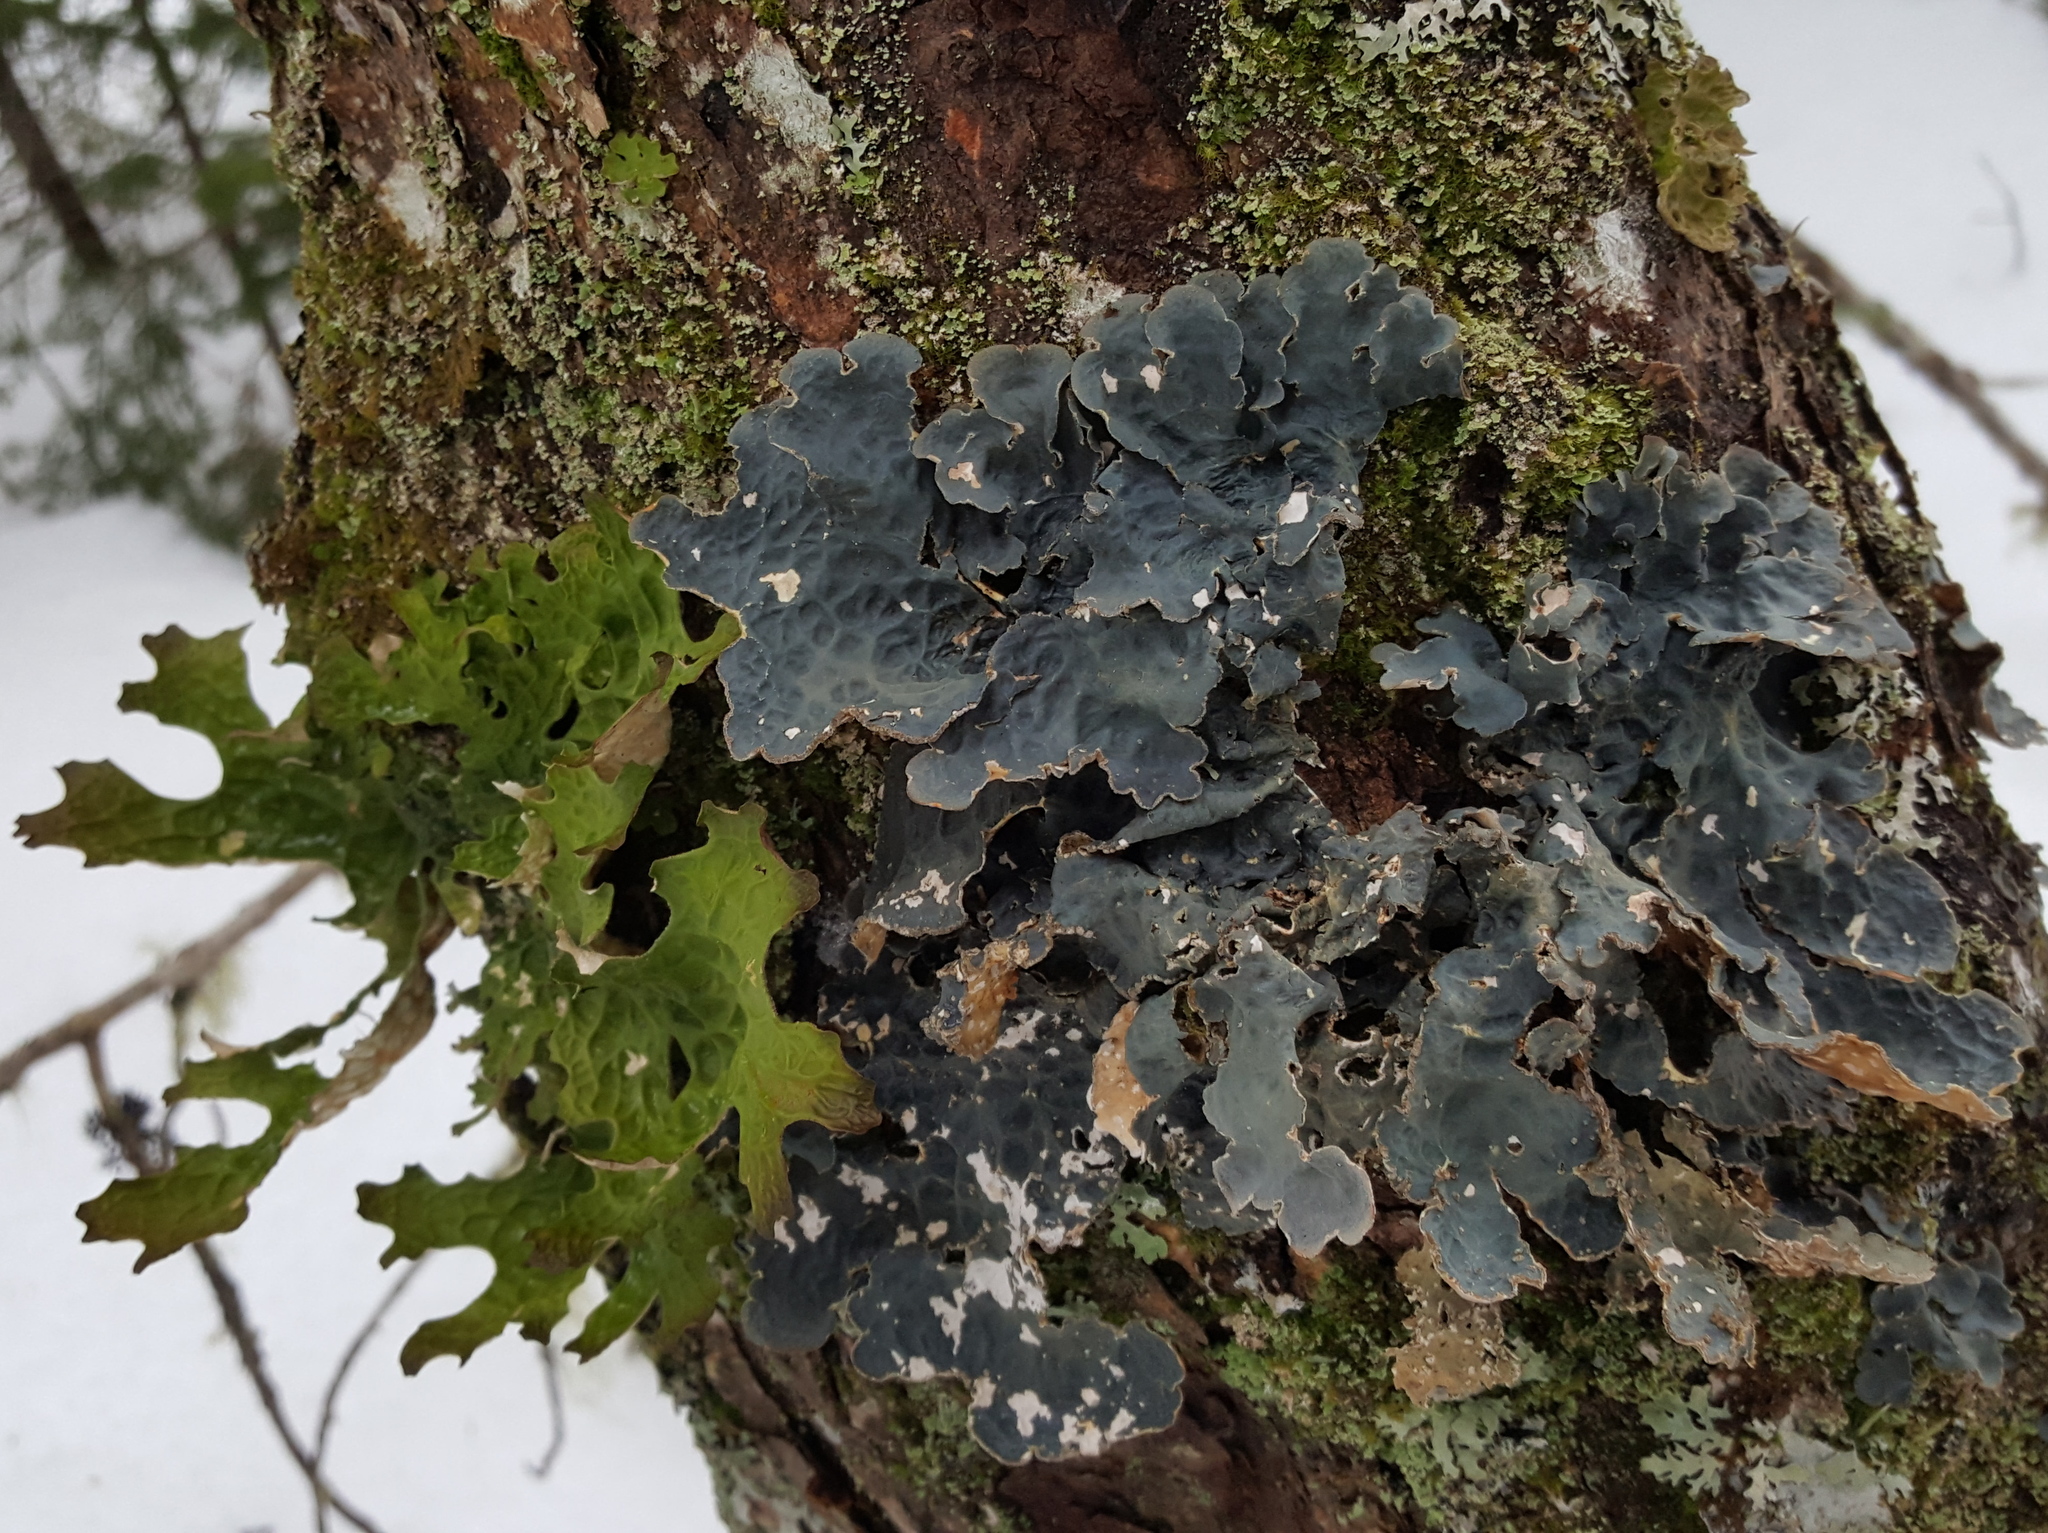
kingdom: Fungi
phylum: Ascomycota
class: Lecanoromycetes
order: Peltigerales
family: Lobariaceae
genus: Lobarina
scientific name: Lobarina scrobiculata
